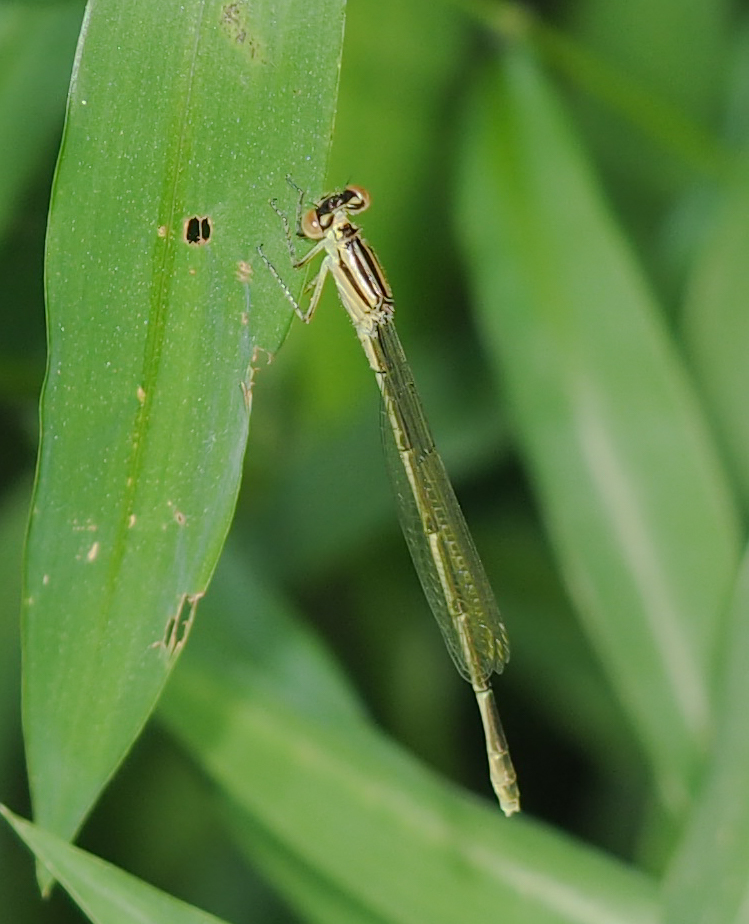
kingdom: Animalia
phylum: Arthropoda
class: Insecta
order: Odonata
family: Coenagrionidae
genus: Enallagma
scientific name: Enallagma durum
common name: Big bluet
